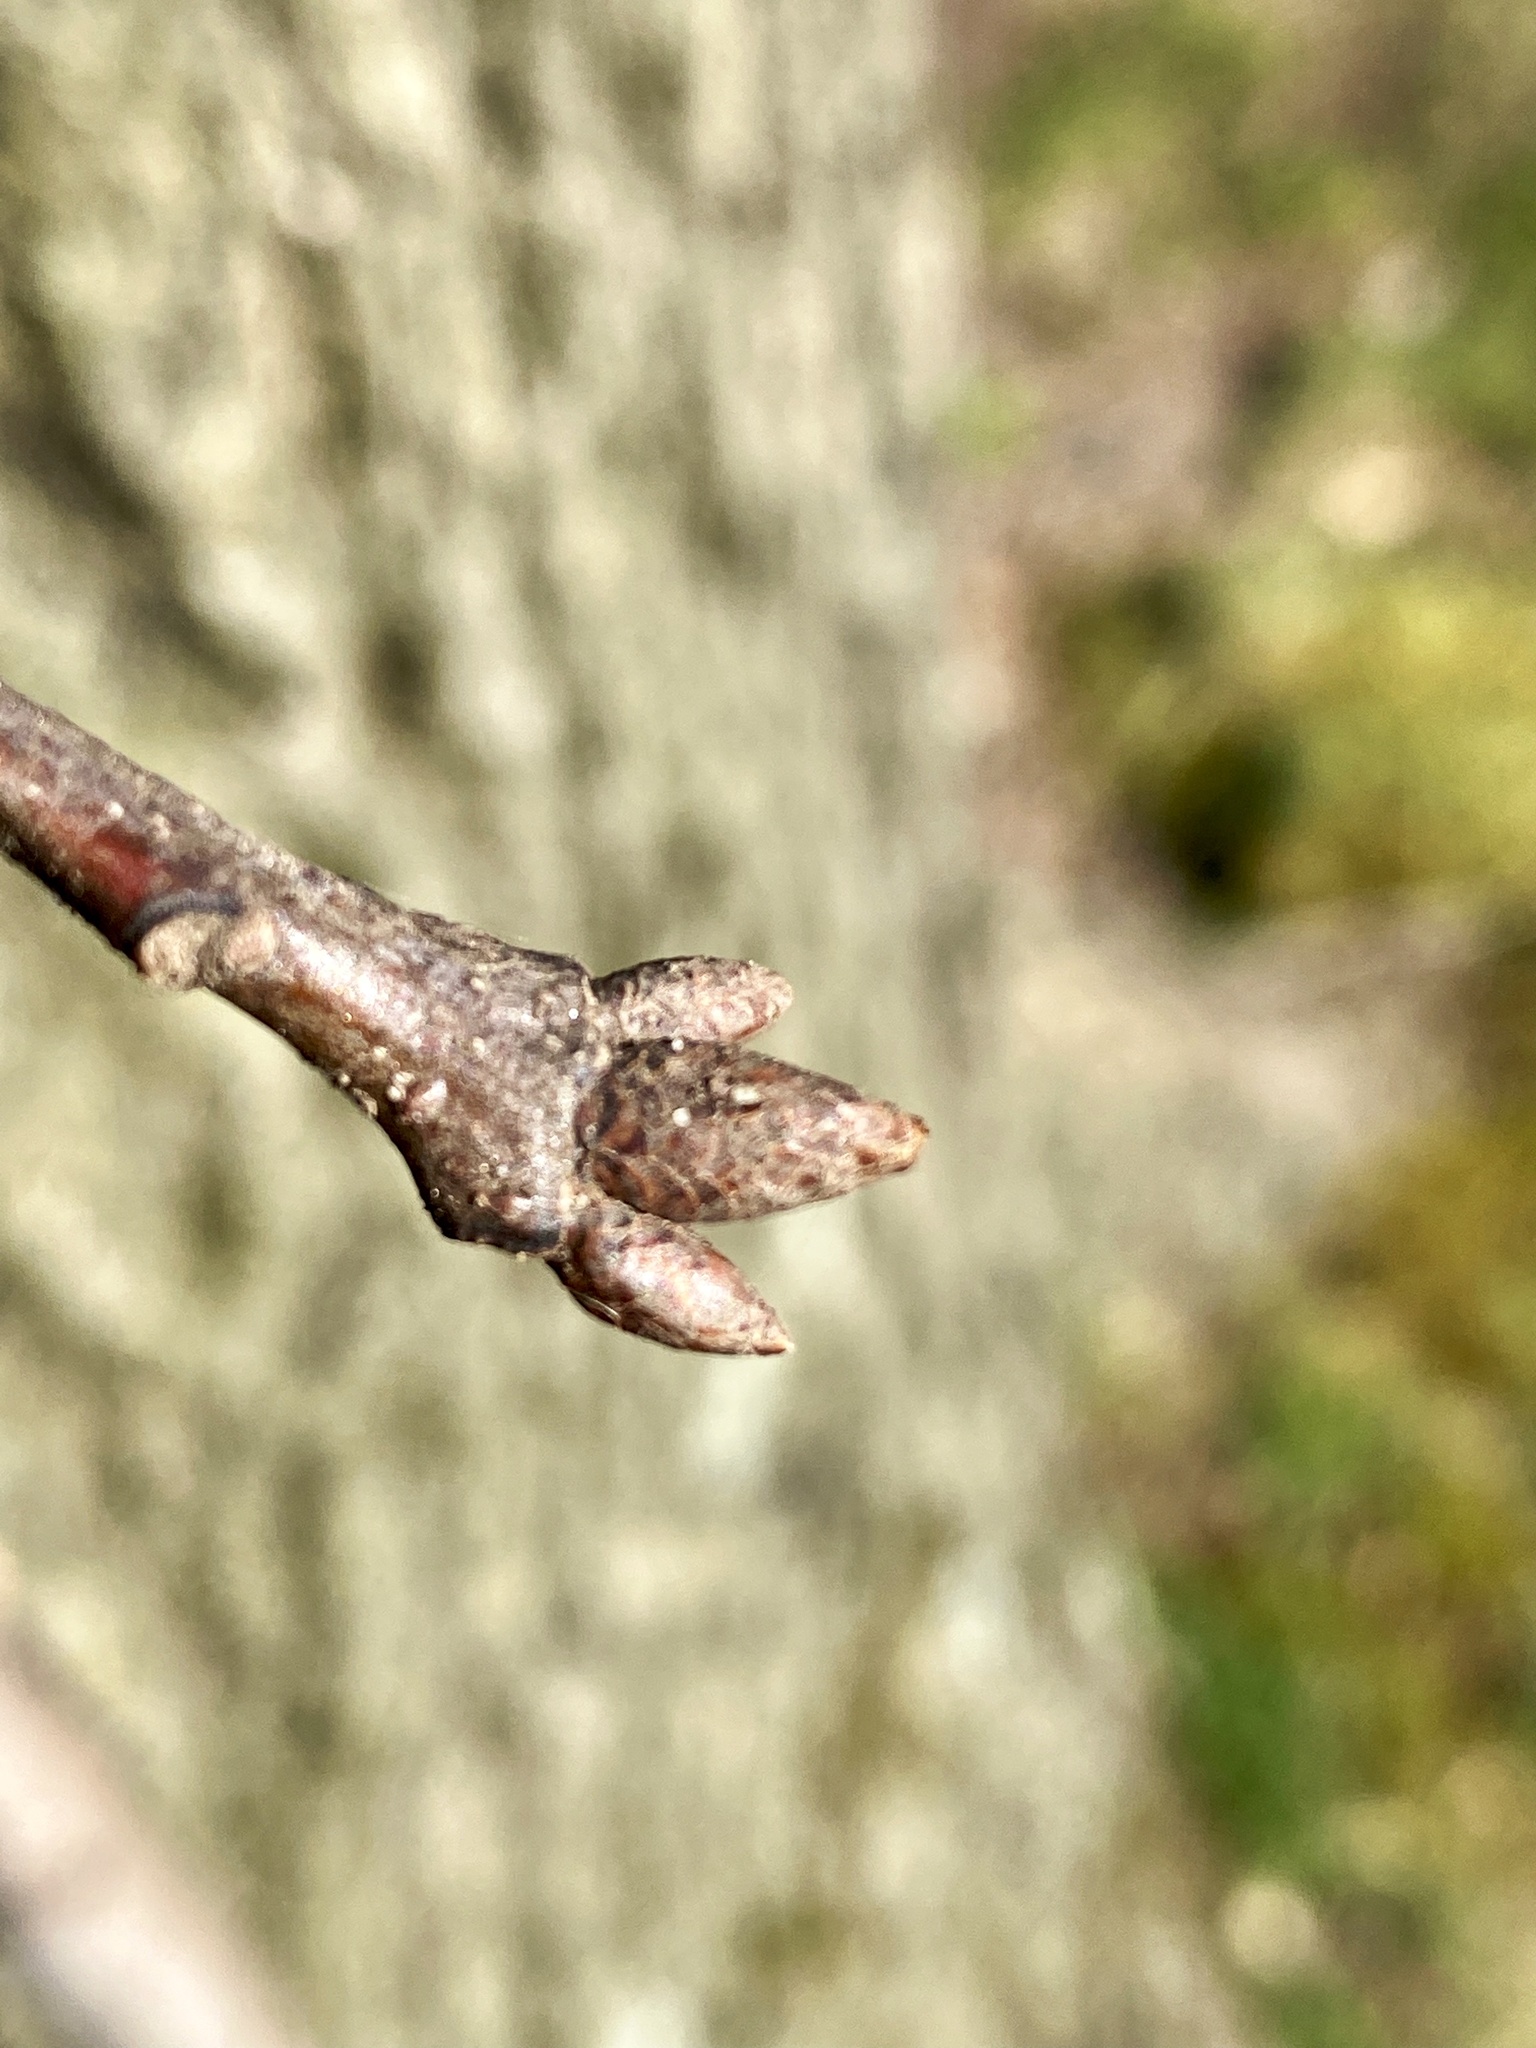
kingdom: Plantae
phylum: Tracheophyta
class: Magnoliopsida
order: Fagales
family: Fagaceae
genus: Quercus
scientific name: Quercus rubra
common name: Red oak
